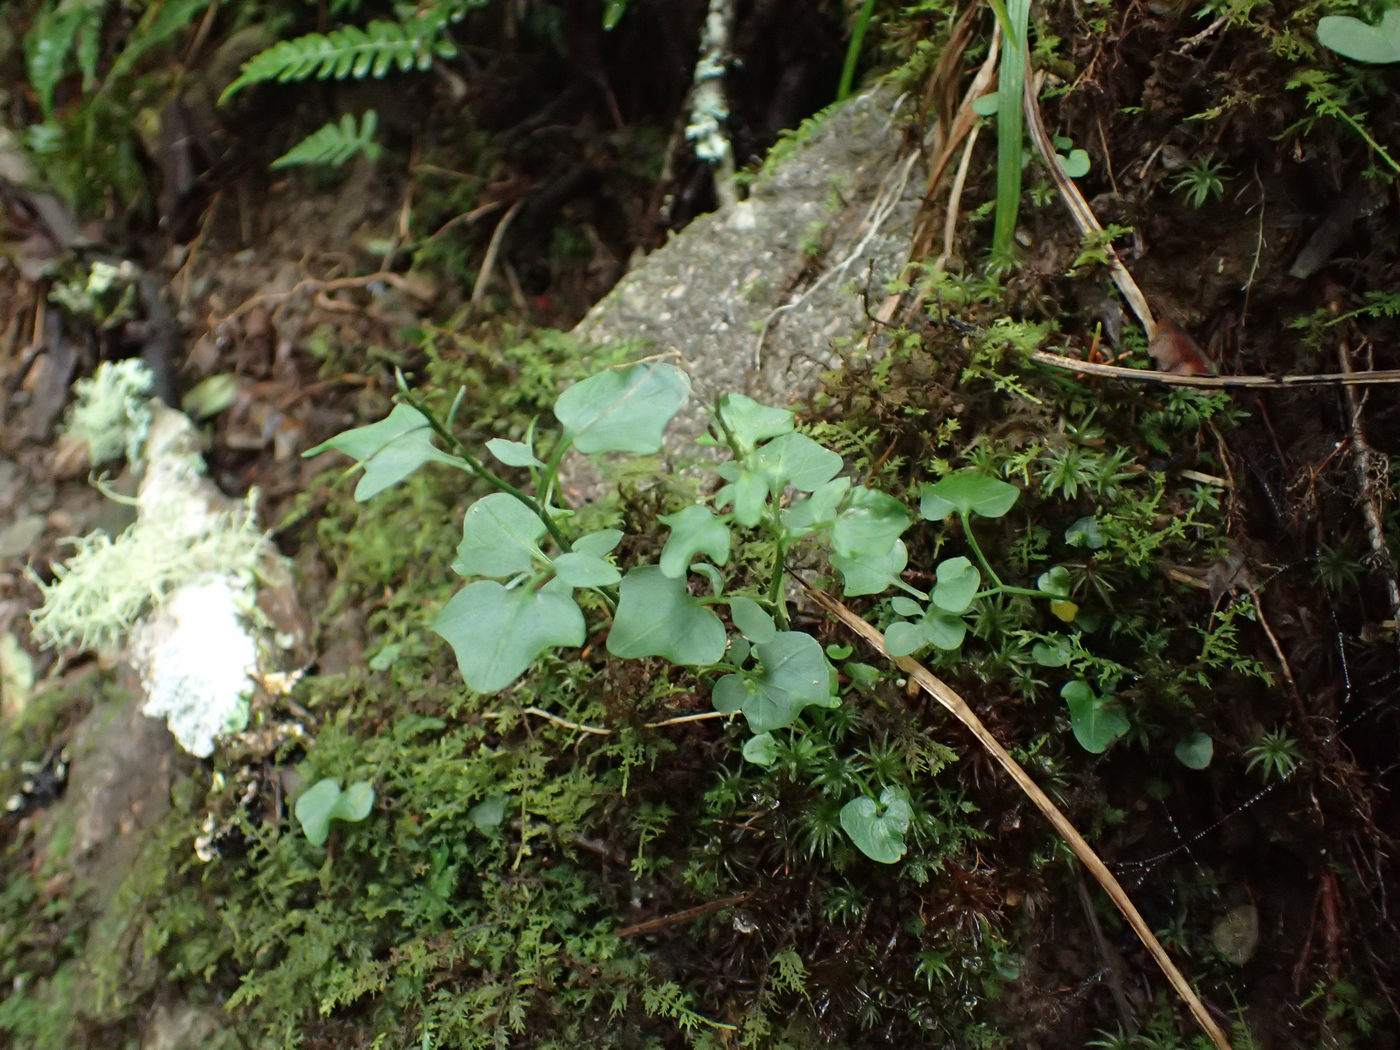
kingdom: Plantae
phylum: Tracheophyta
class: Magnoliopsida
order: Brassicales
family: Brassicaceae
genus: Cardamine
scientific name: Cardamine clematitis
